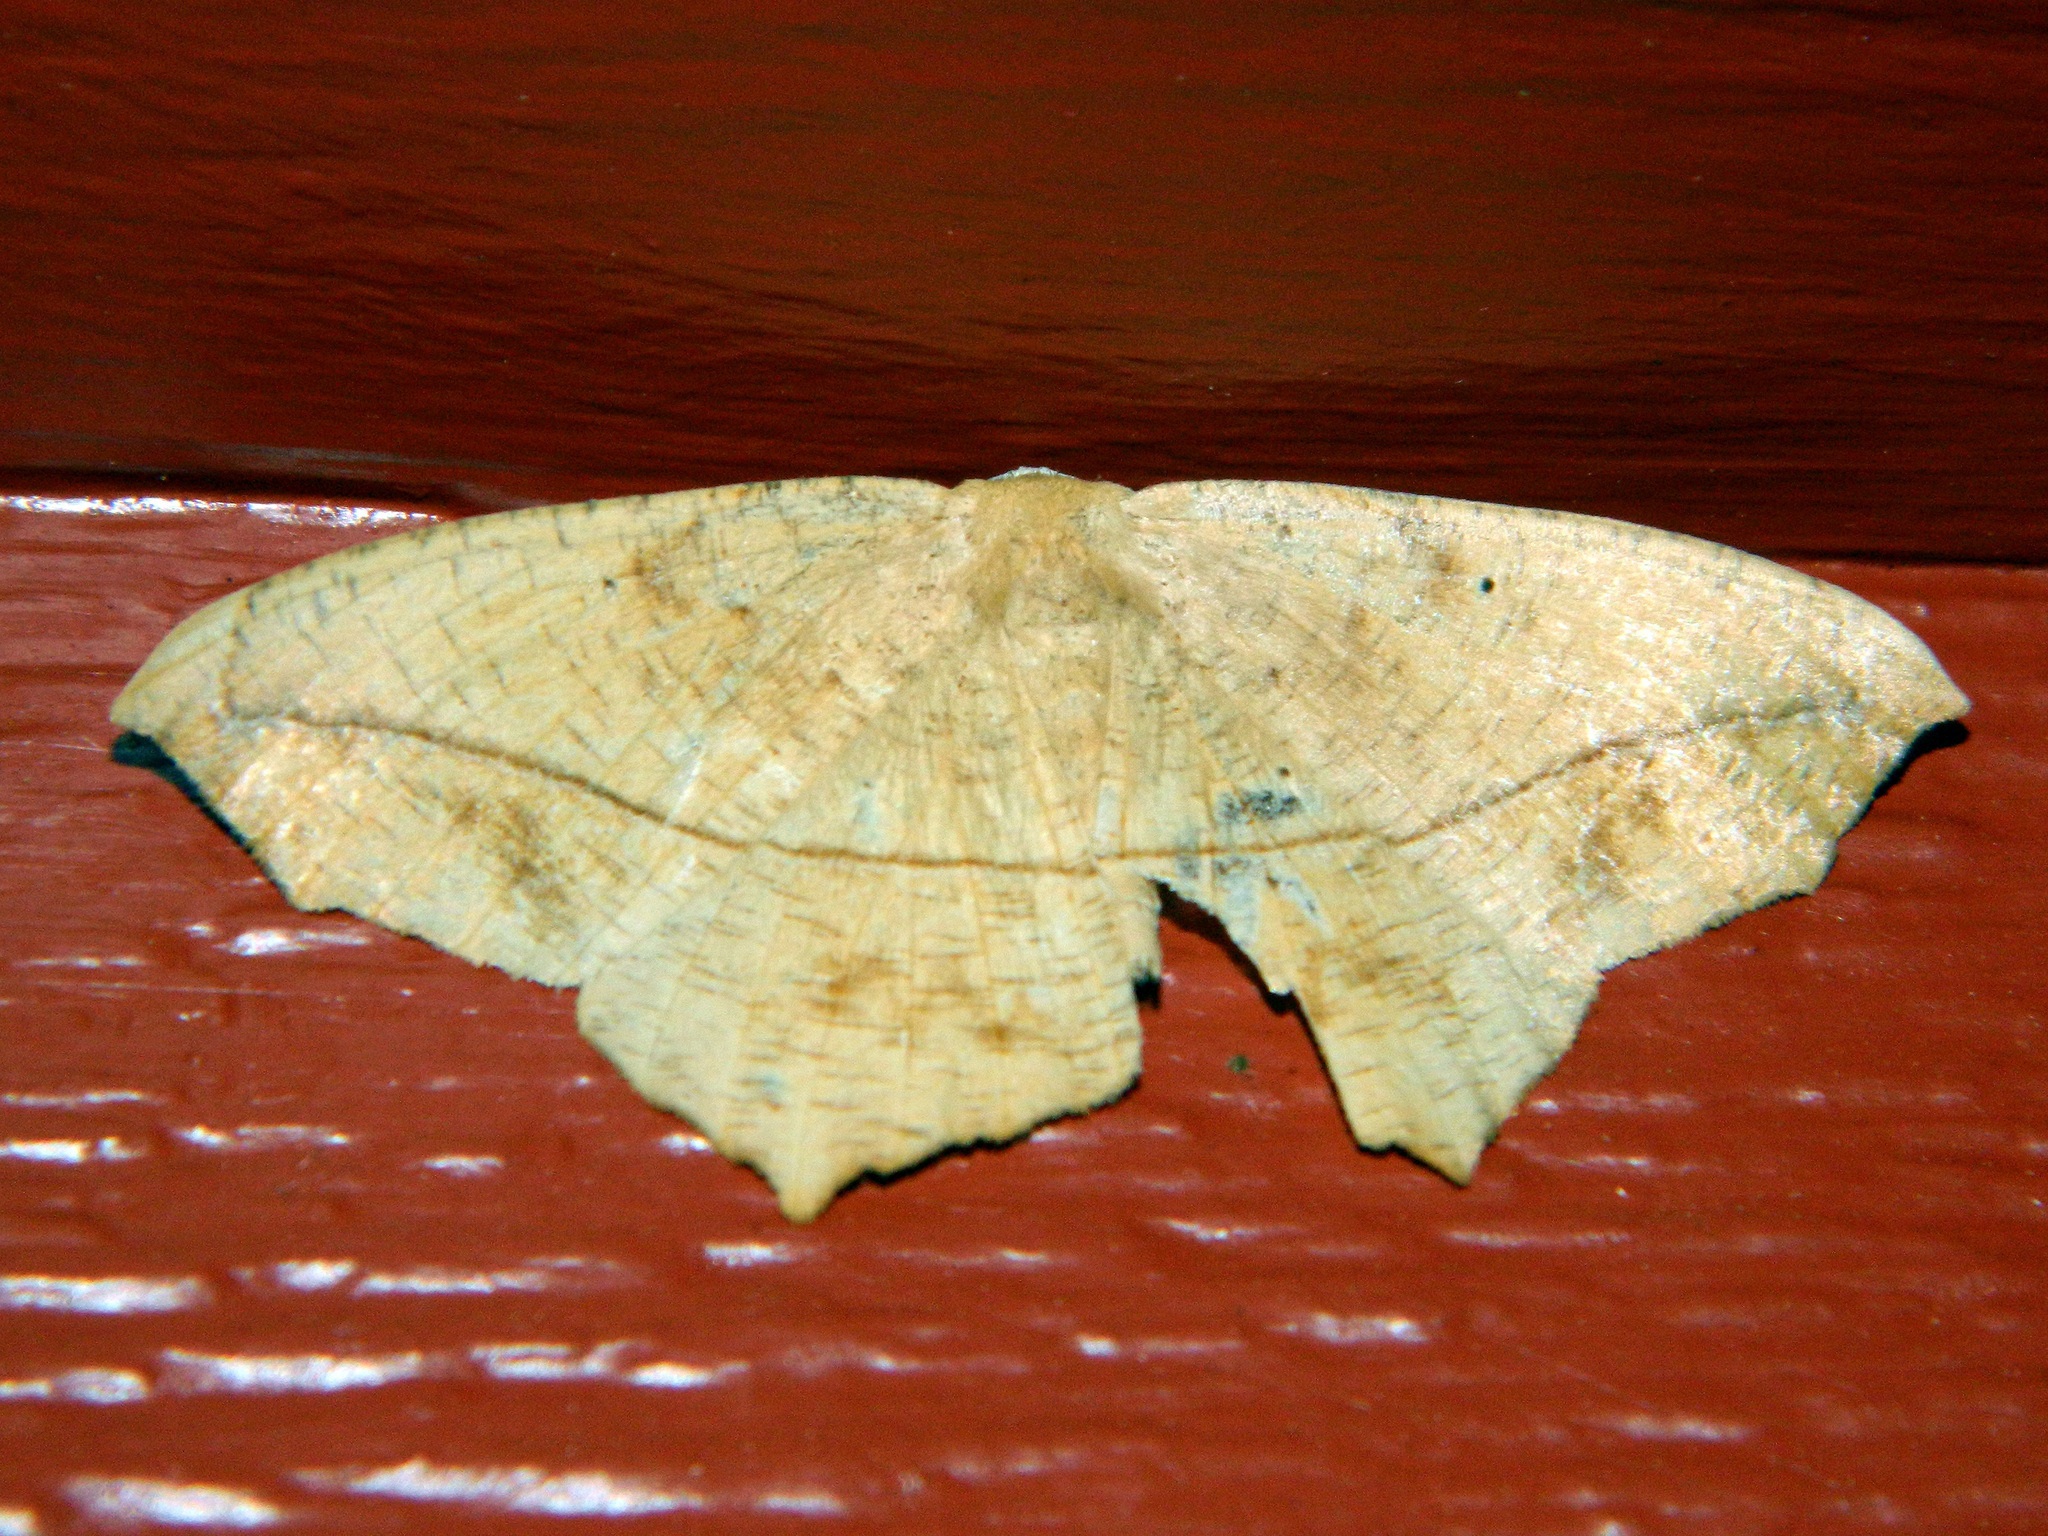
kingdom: Animalia
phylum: Arthropoda
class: Insecta
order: Lepidoptera
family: Geometridae
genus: Prochoerodes
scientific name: Prochoerodes lineola
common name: Large maple spanworm
